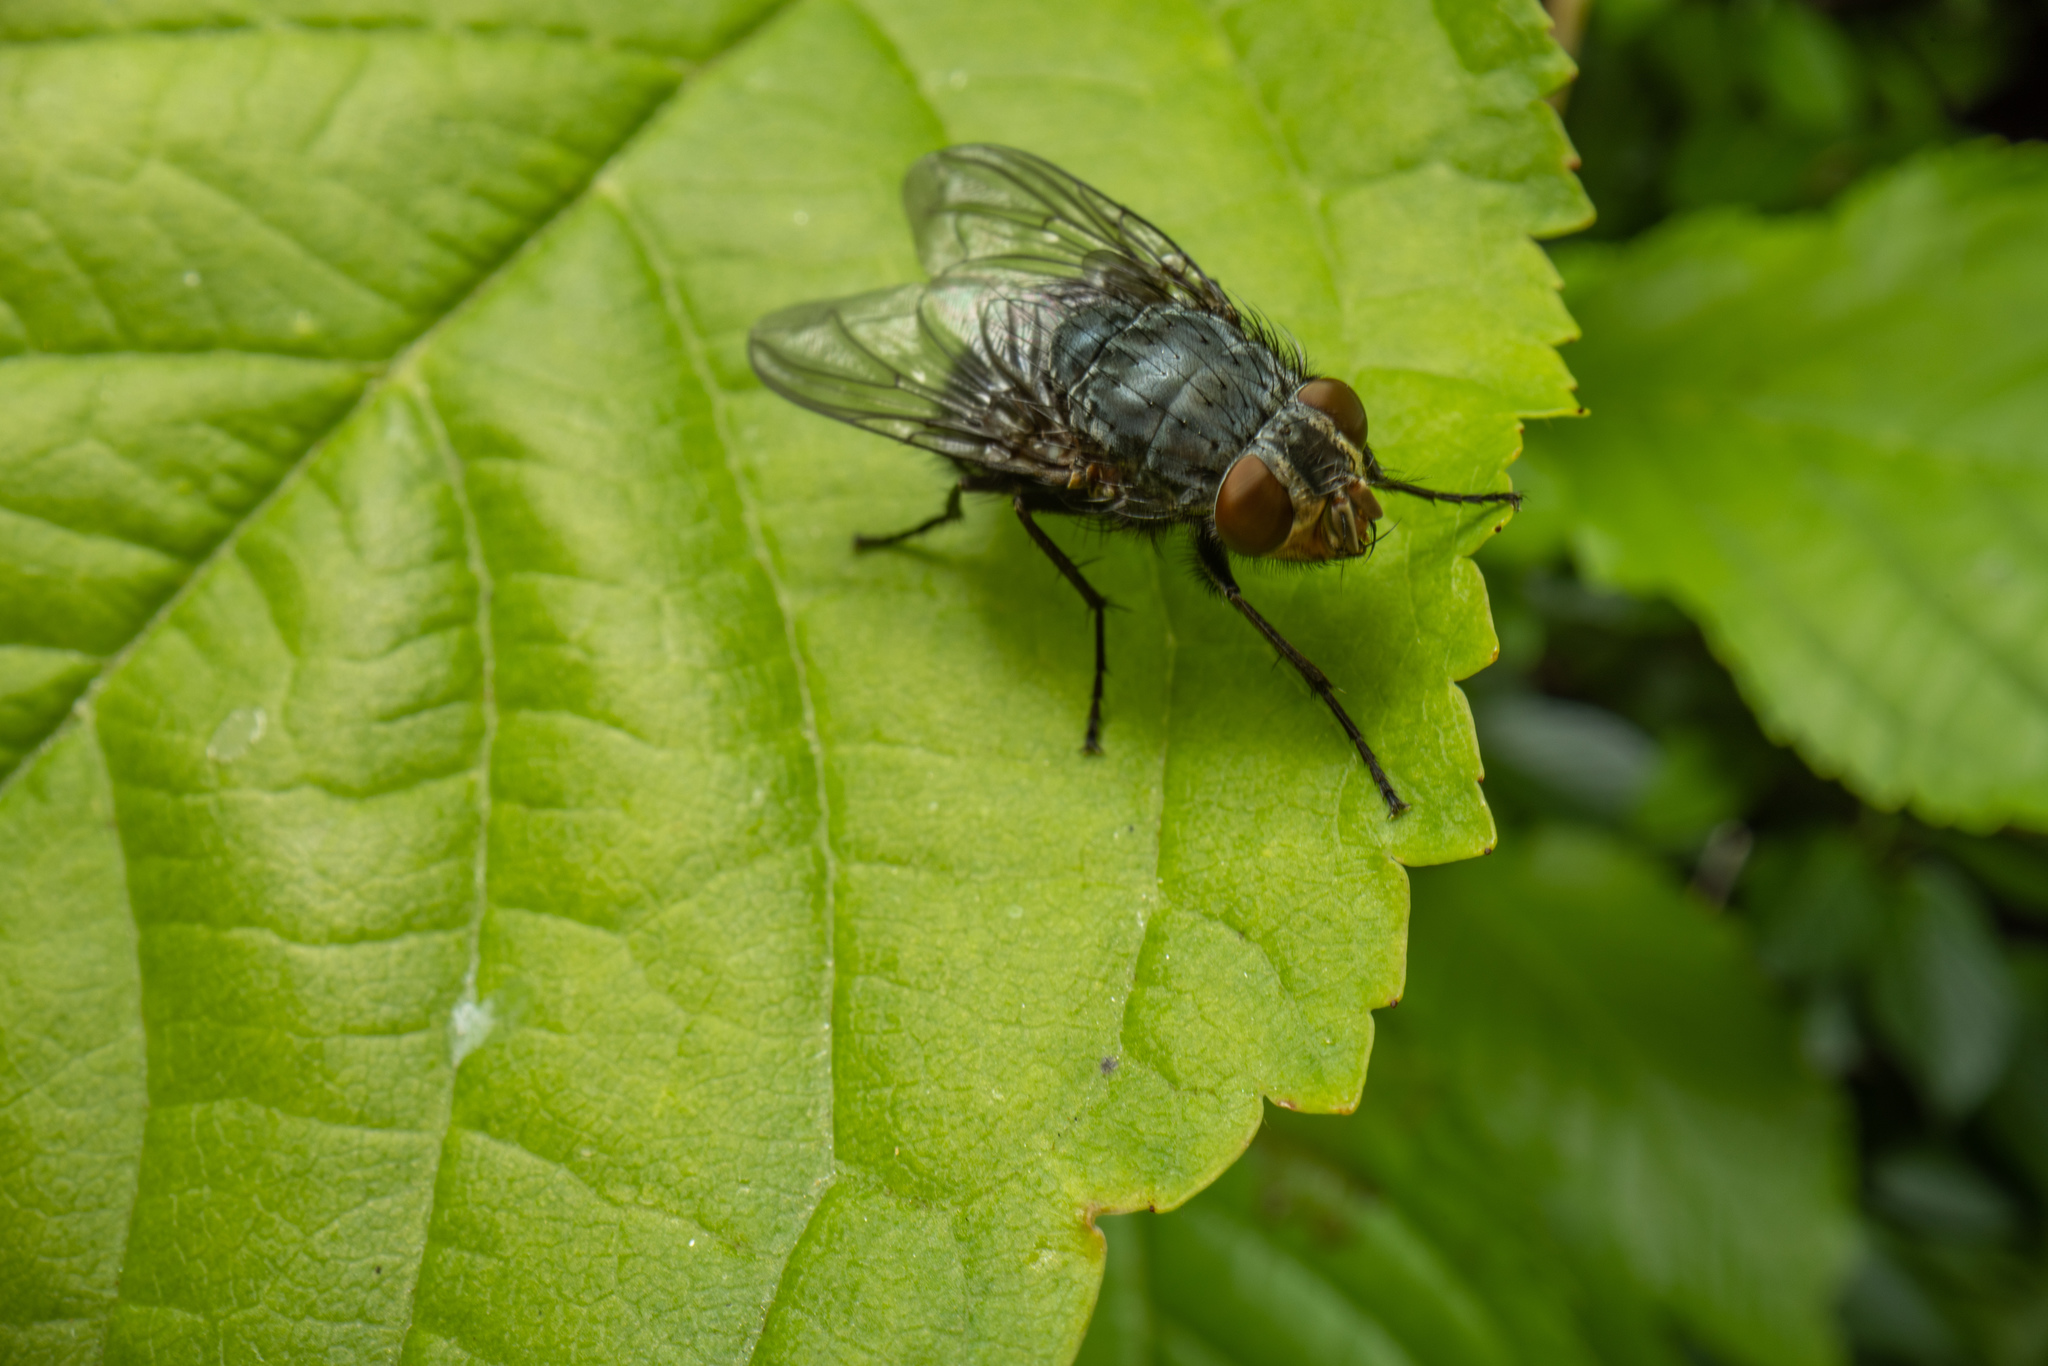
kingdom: Animalia
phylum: Arthropoda
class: Insecta
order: Diptera
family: Calliphoridae
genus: Calliphora
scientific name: Calliphora vicina
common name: Common blow flie
